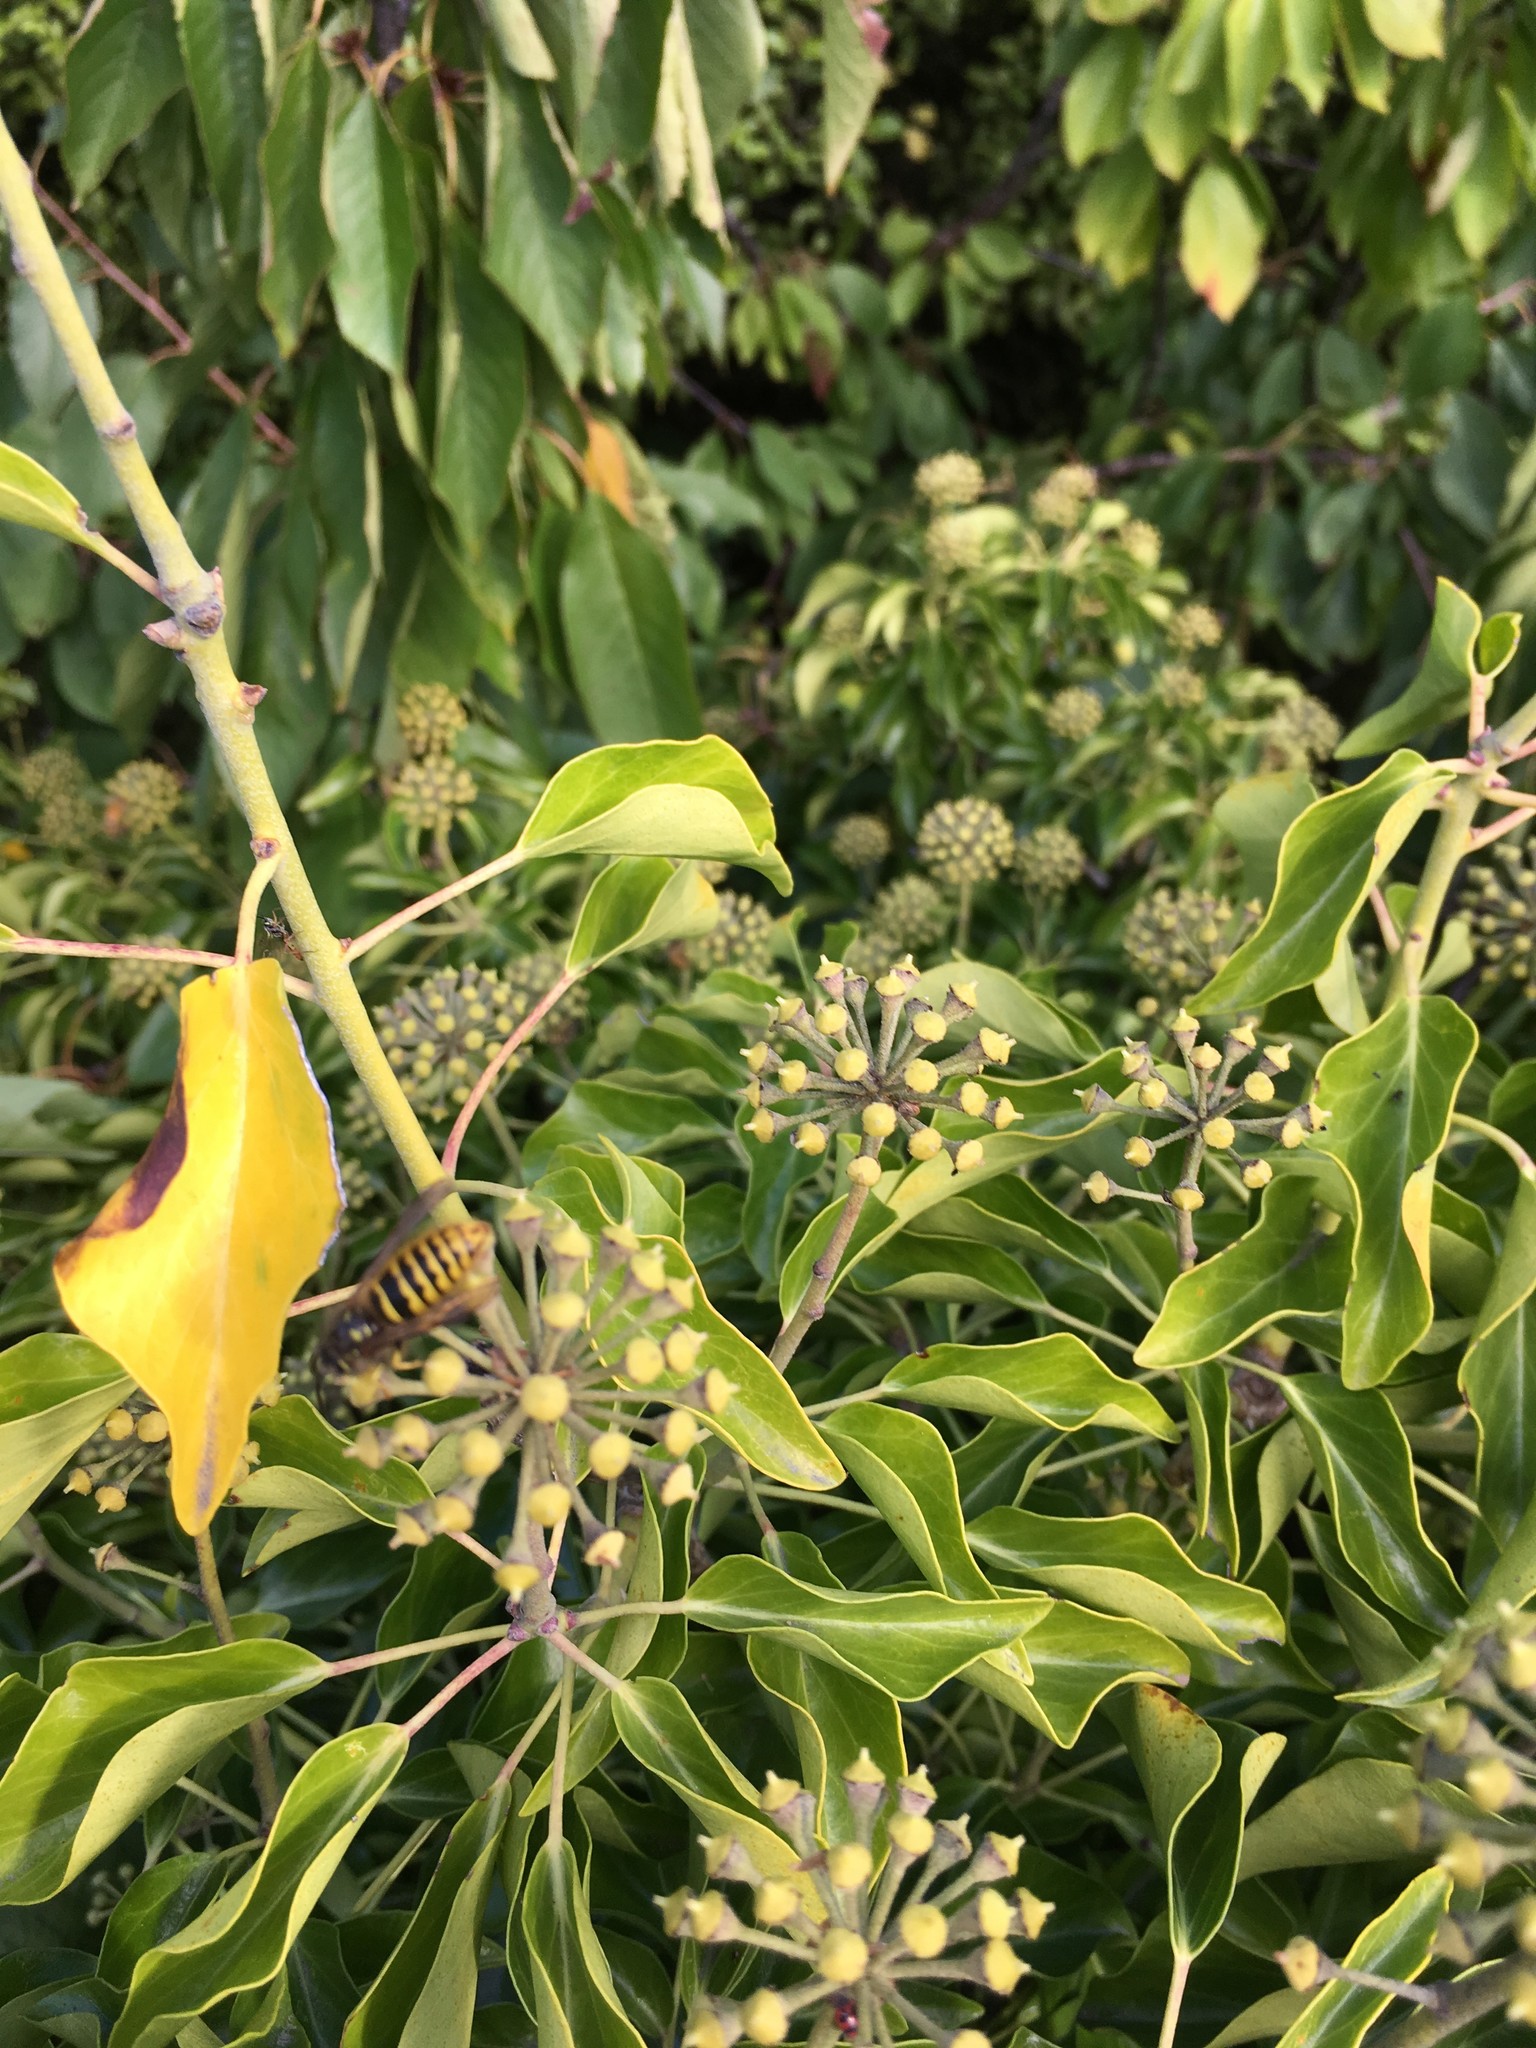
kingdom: Animalia
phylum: Arthropoda
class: Insecta
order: Hymenoptera
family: Vespidae
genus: Vespula
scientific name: Vespula vulgaris
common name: Common wasp
